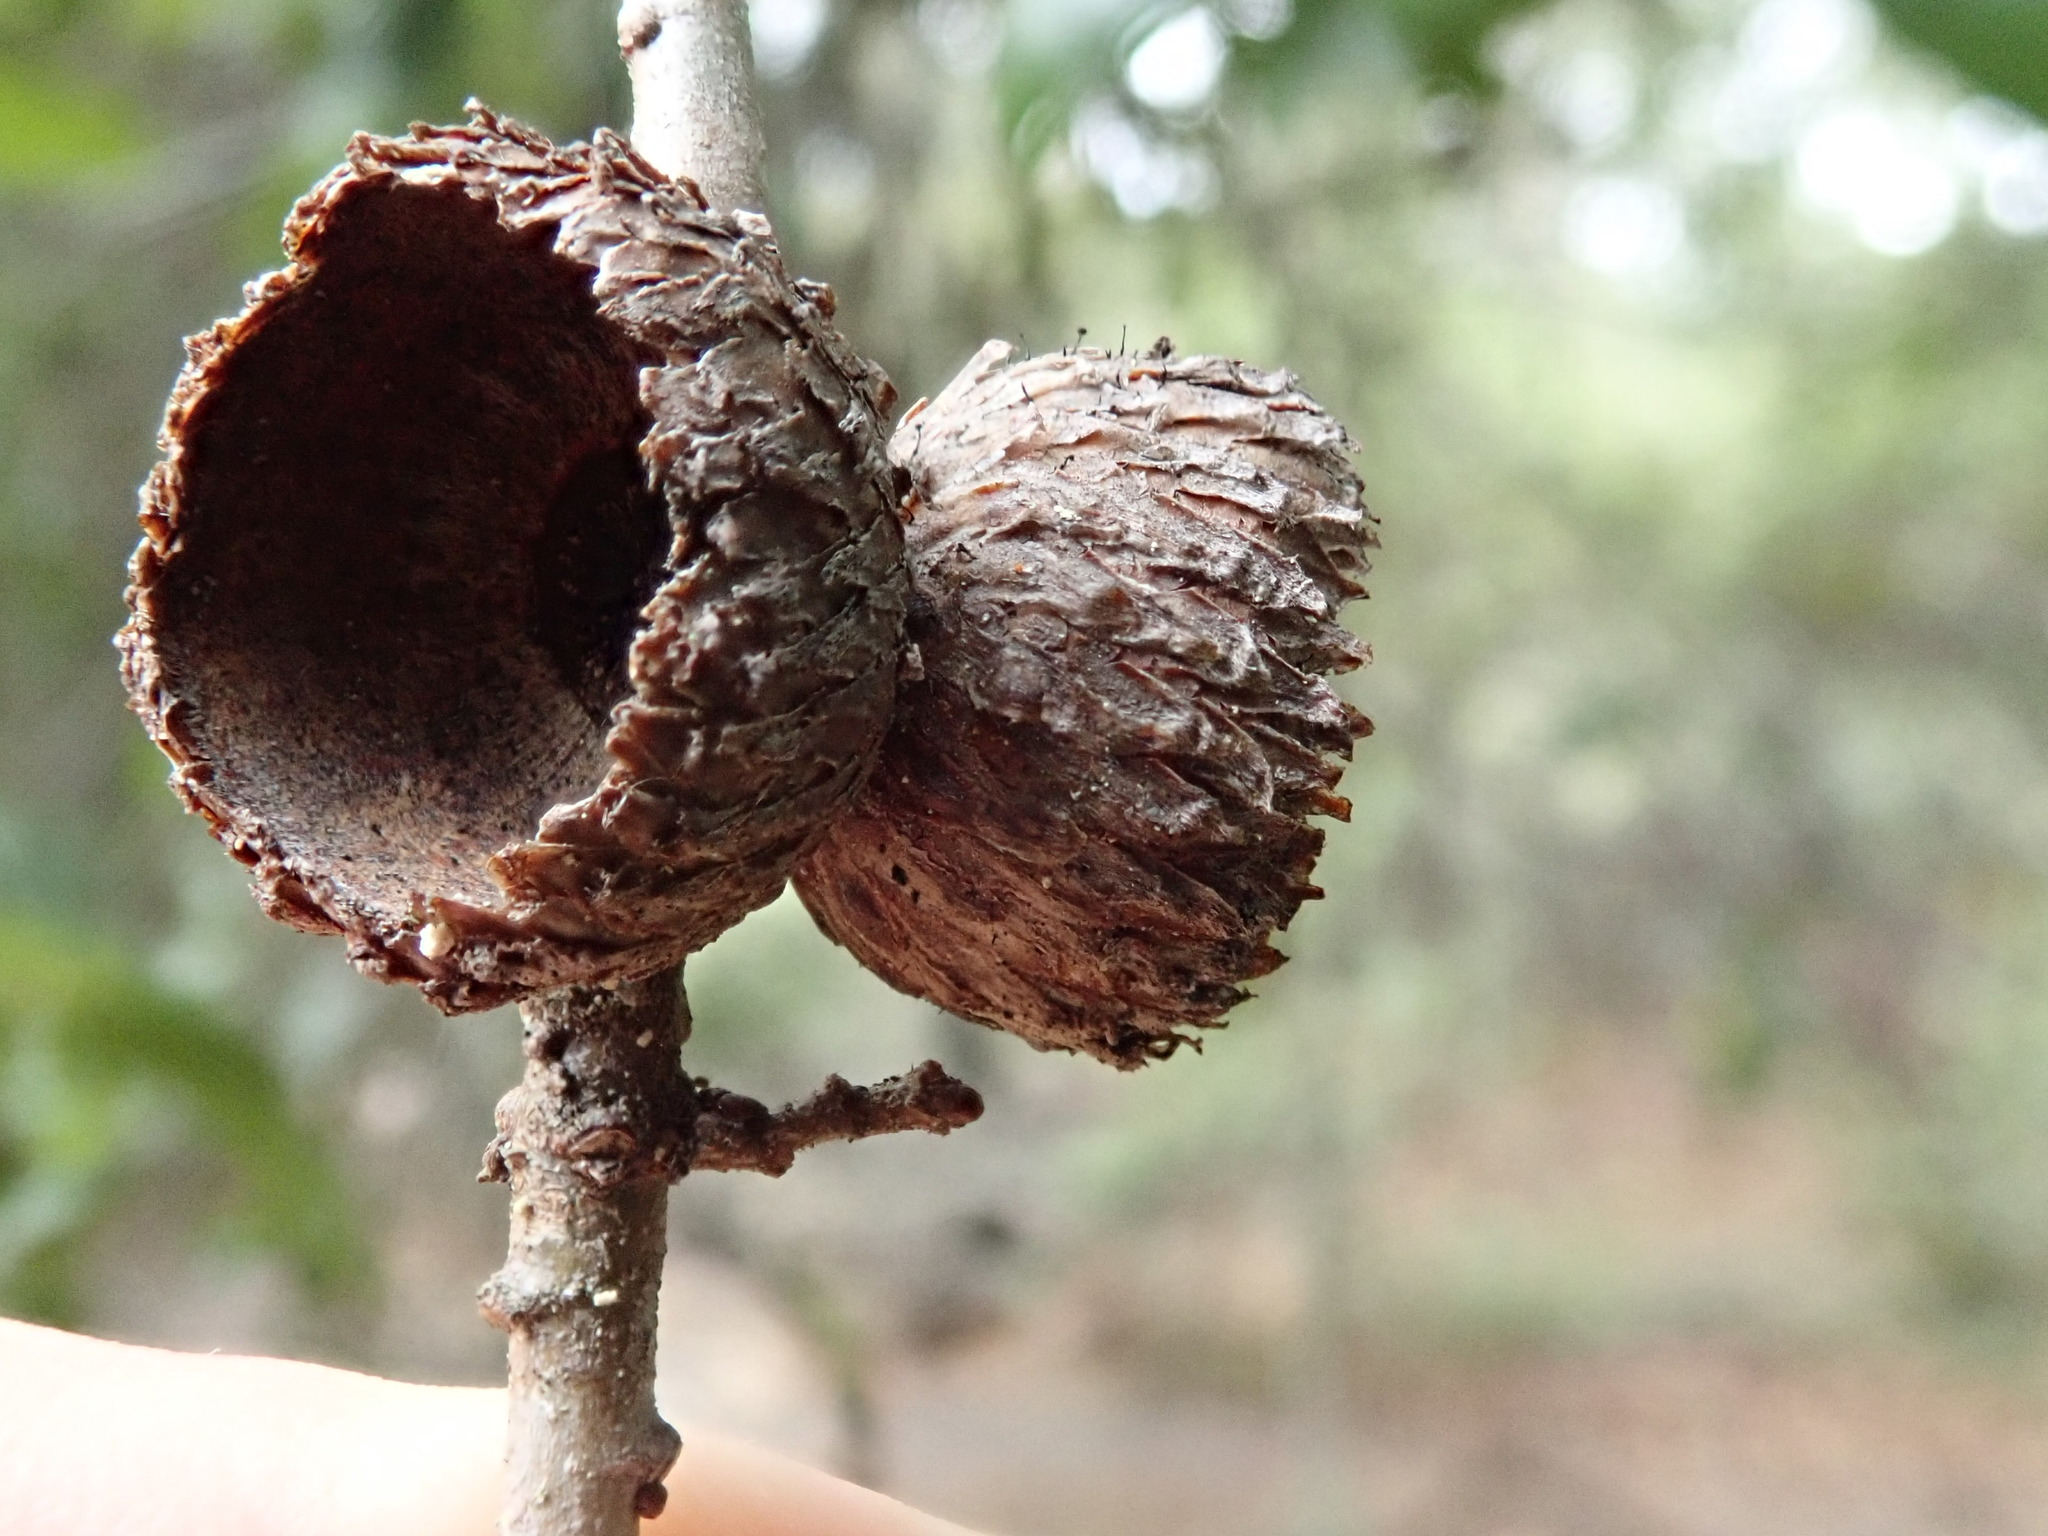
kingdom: Plantae
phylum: Tracheophyta
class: Magnoliopsida
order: Fagales
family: Fagaceae
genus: Quercus
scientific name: Quercus parvula
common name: Santa cruz island oak
